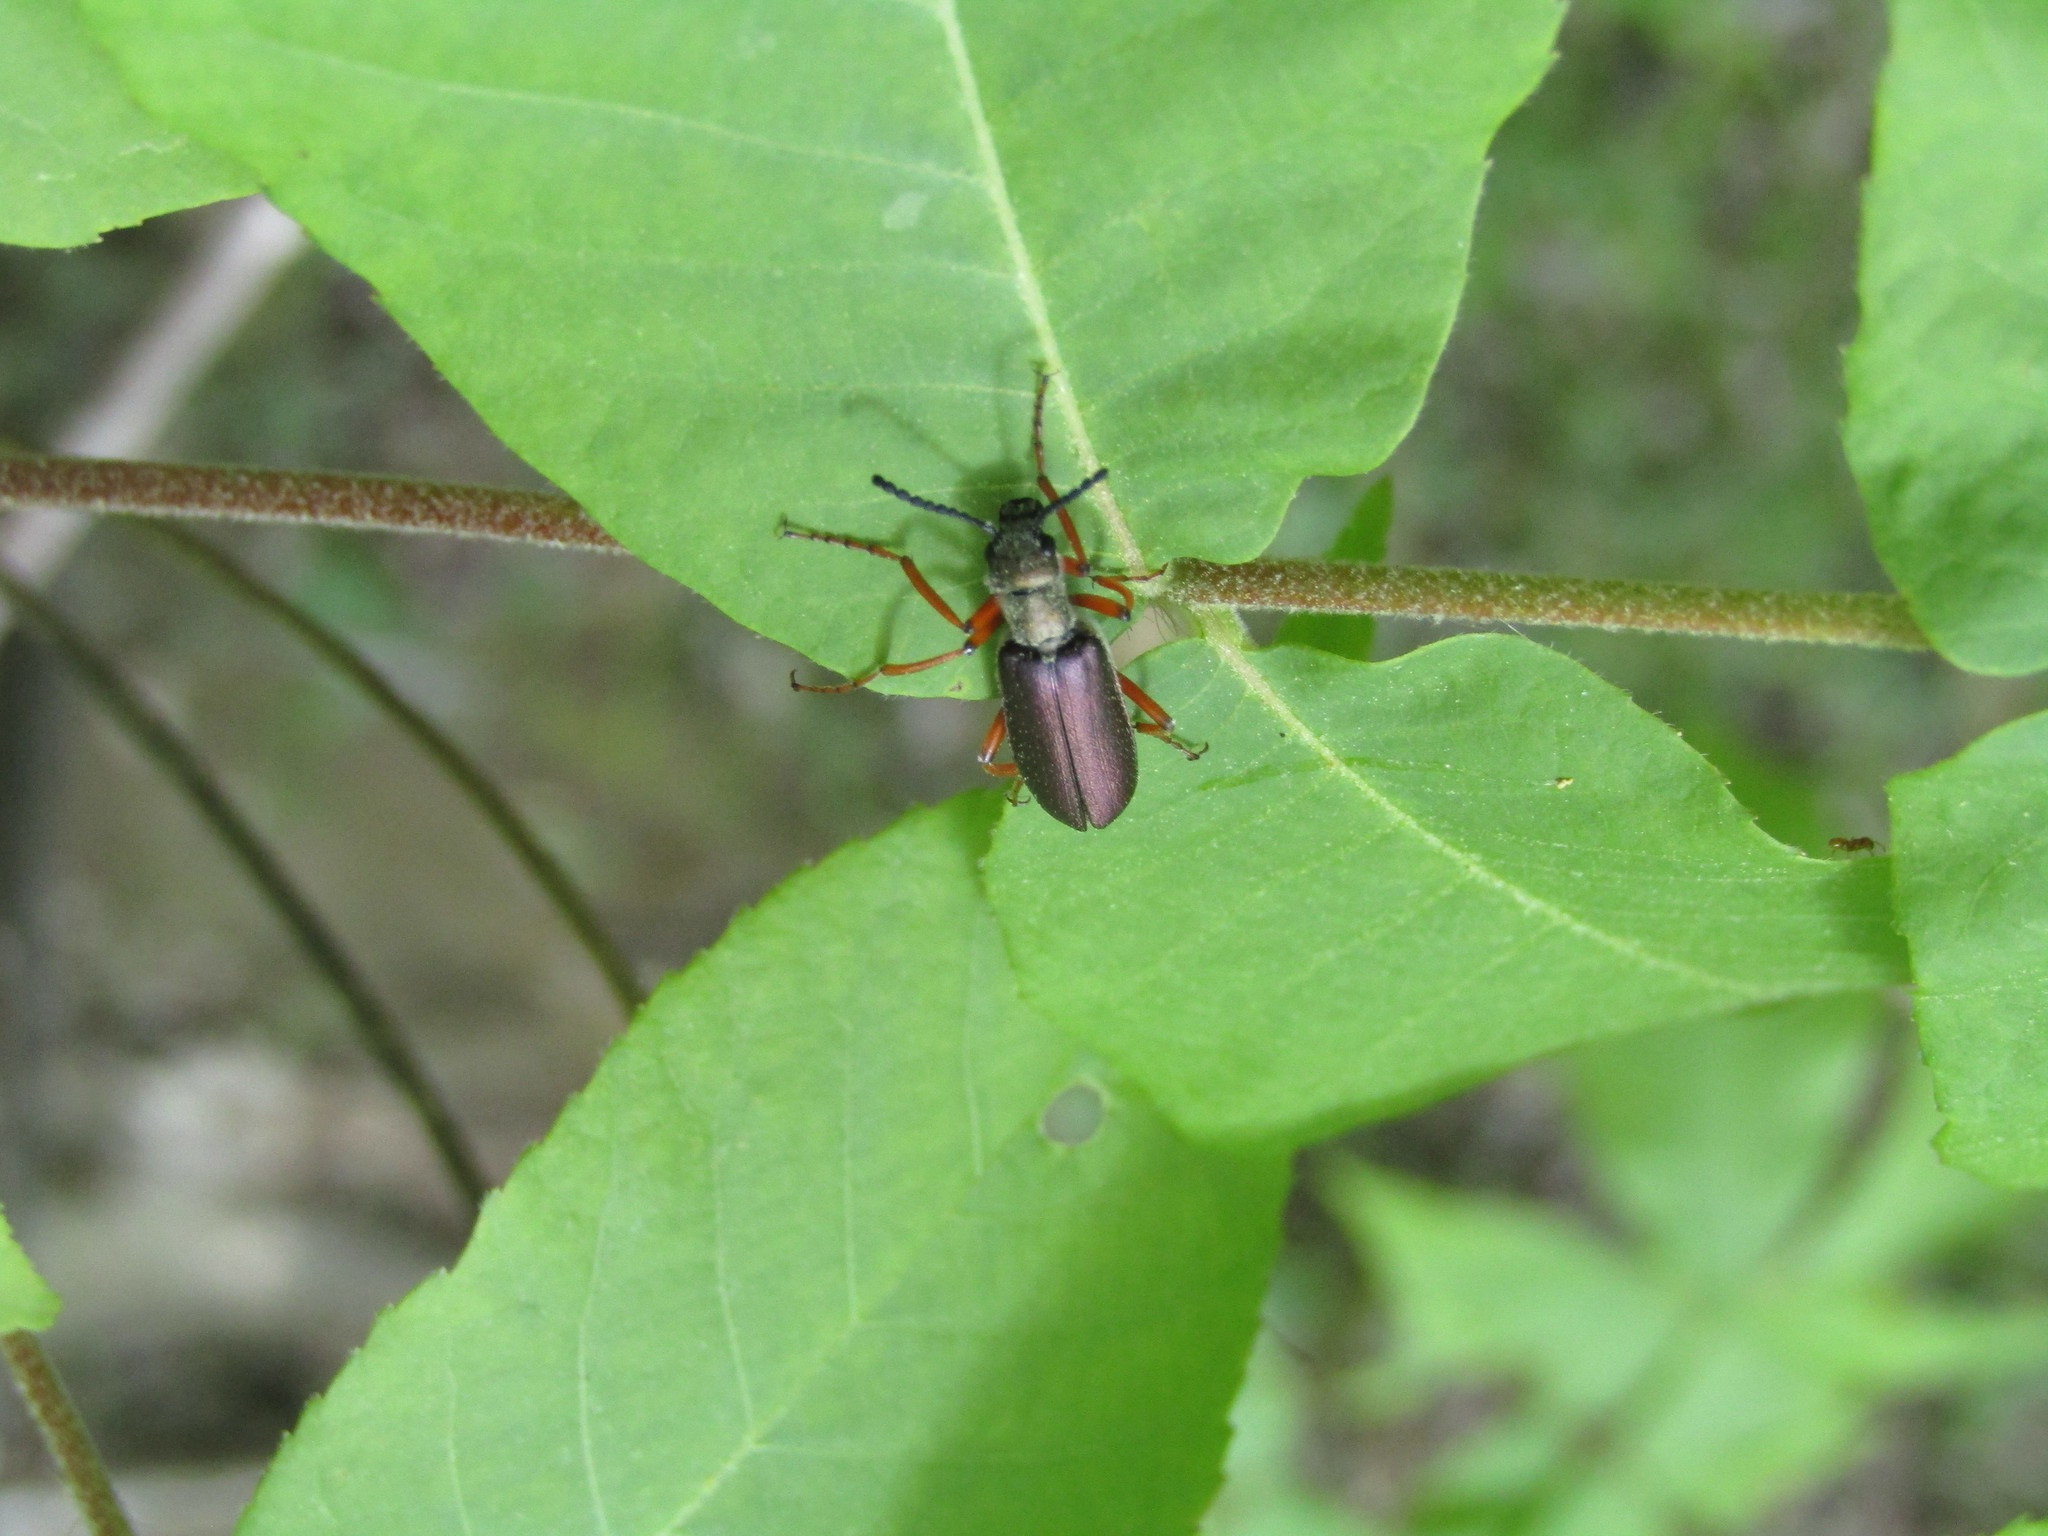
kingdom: Animalia
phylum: Arthropoda
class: Insecta
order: Coleoptera
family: Meloidae
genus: Lytta
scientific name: Lytta aenea
